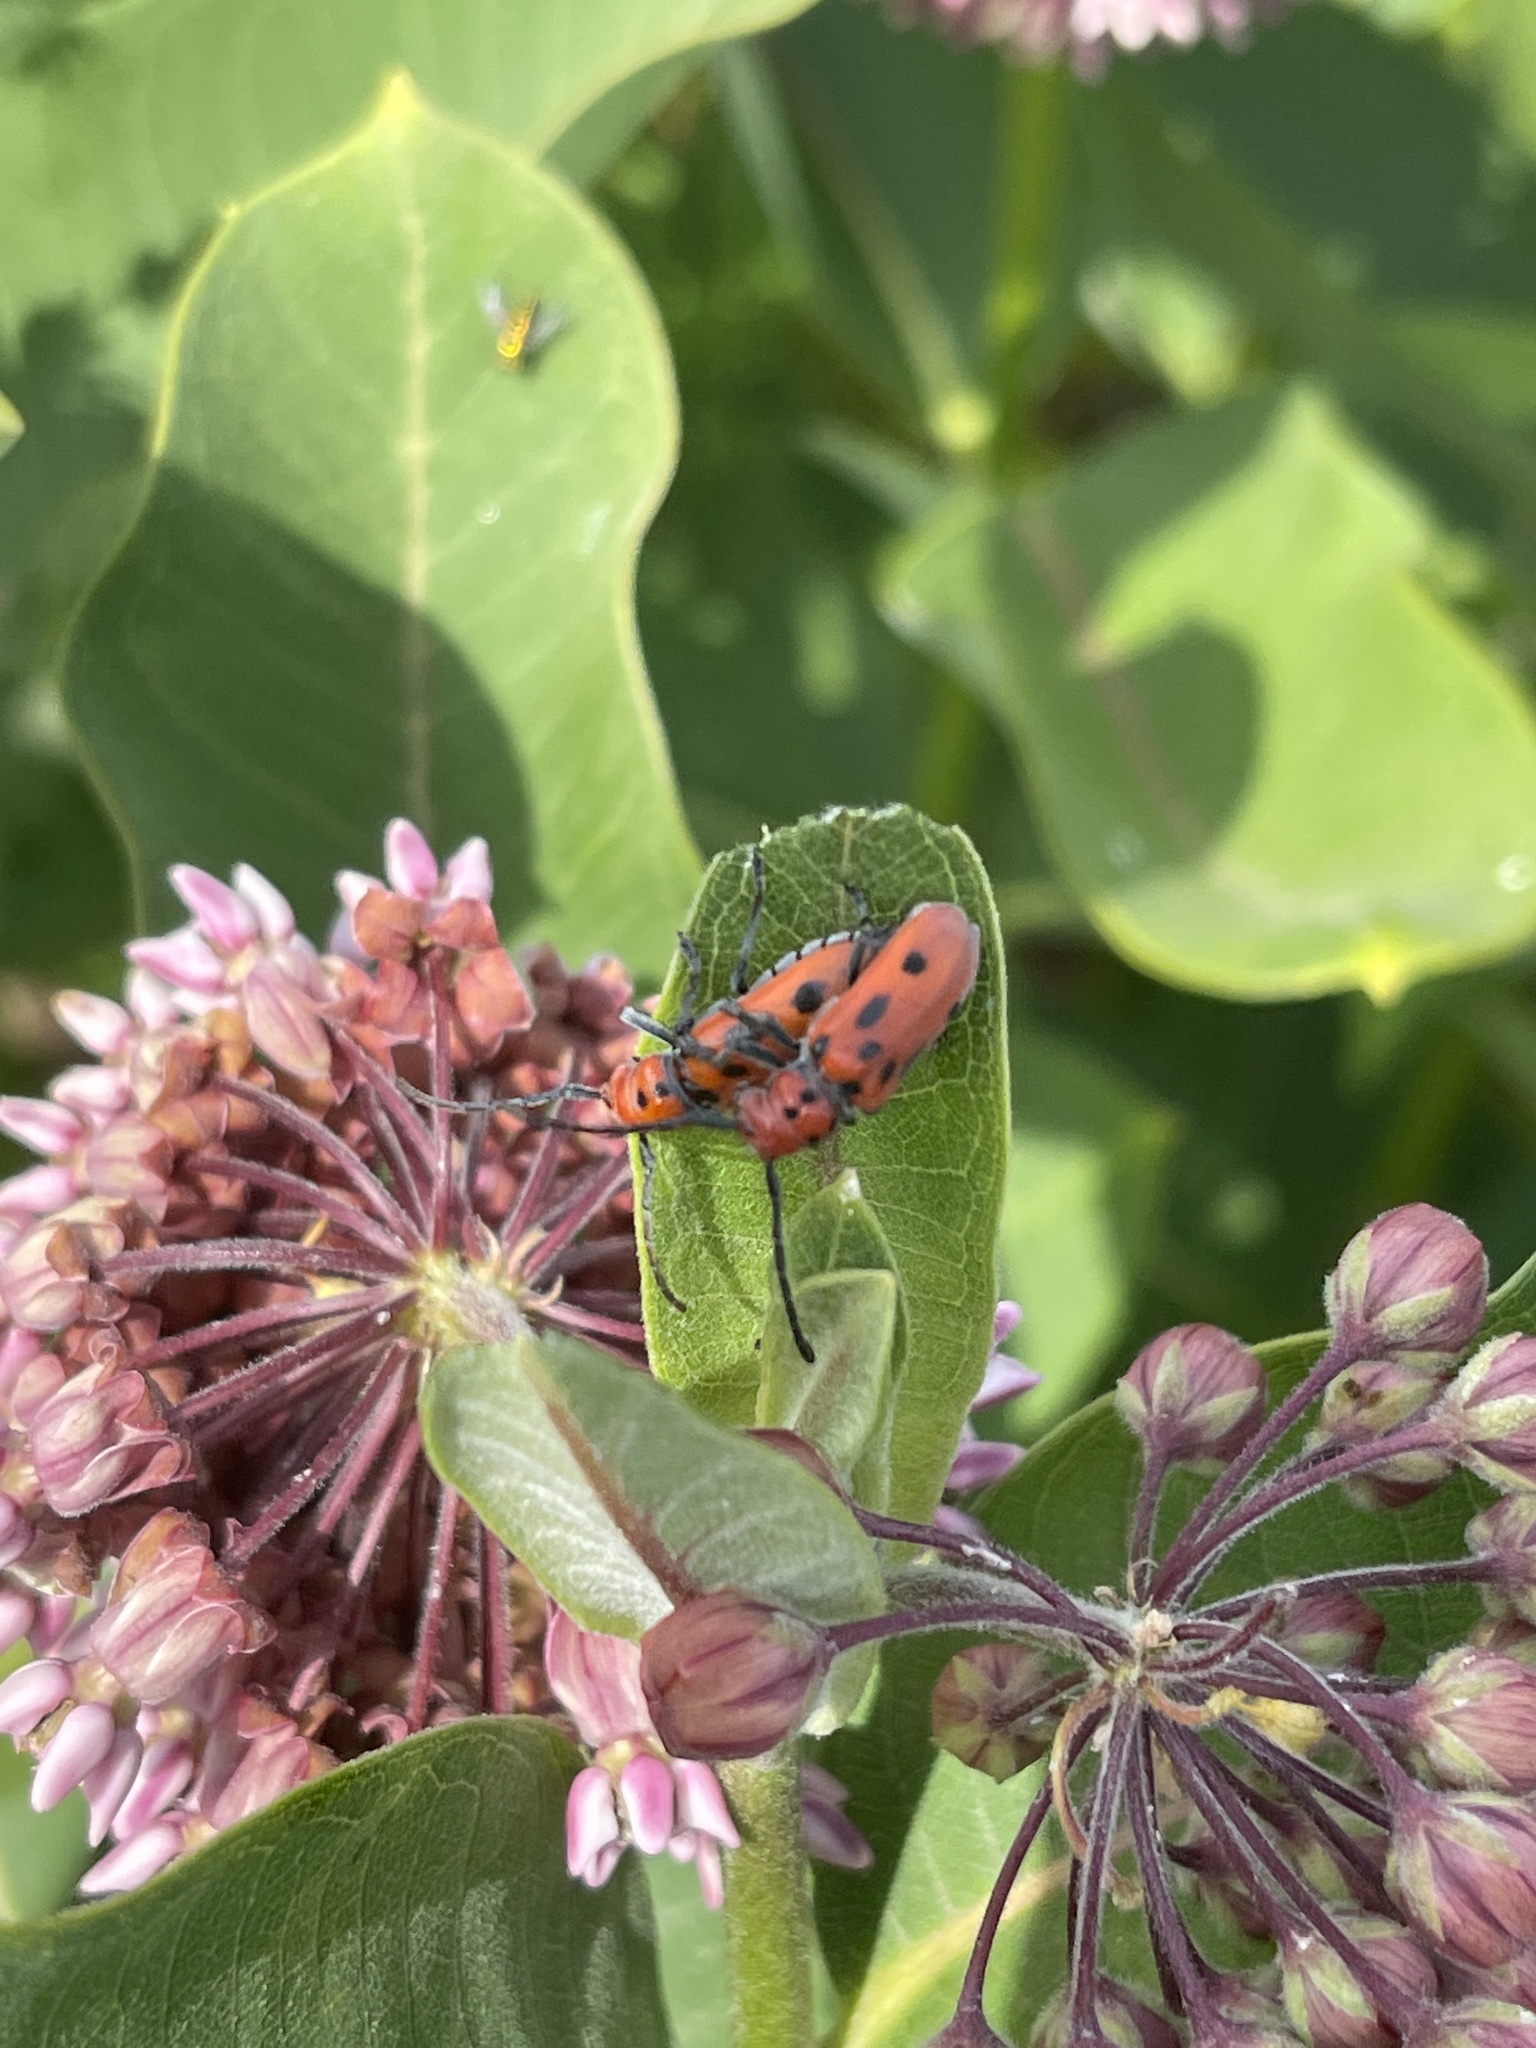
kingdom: Animalia
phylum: Arthropoda
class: Insecta
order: Coleoptera
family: Cerambycidae
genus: Tetraopes
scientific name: Tetraopes tetrophthalmus
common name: Red milkweed beetle
